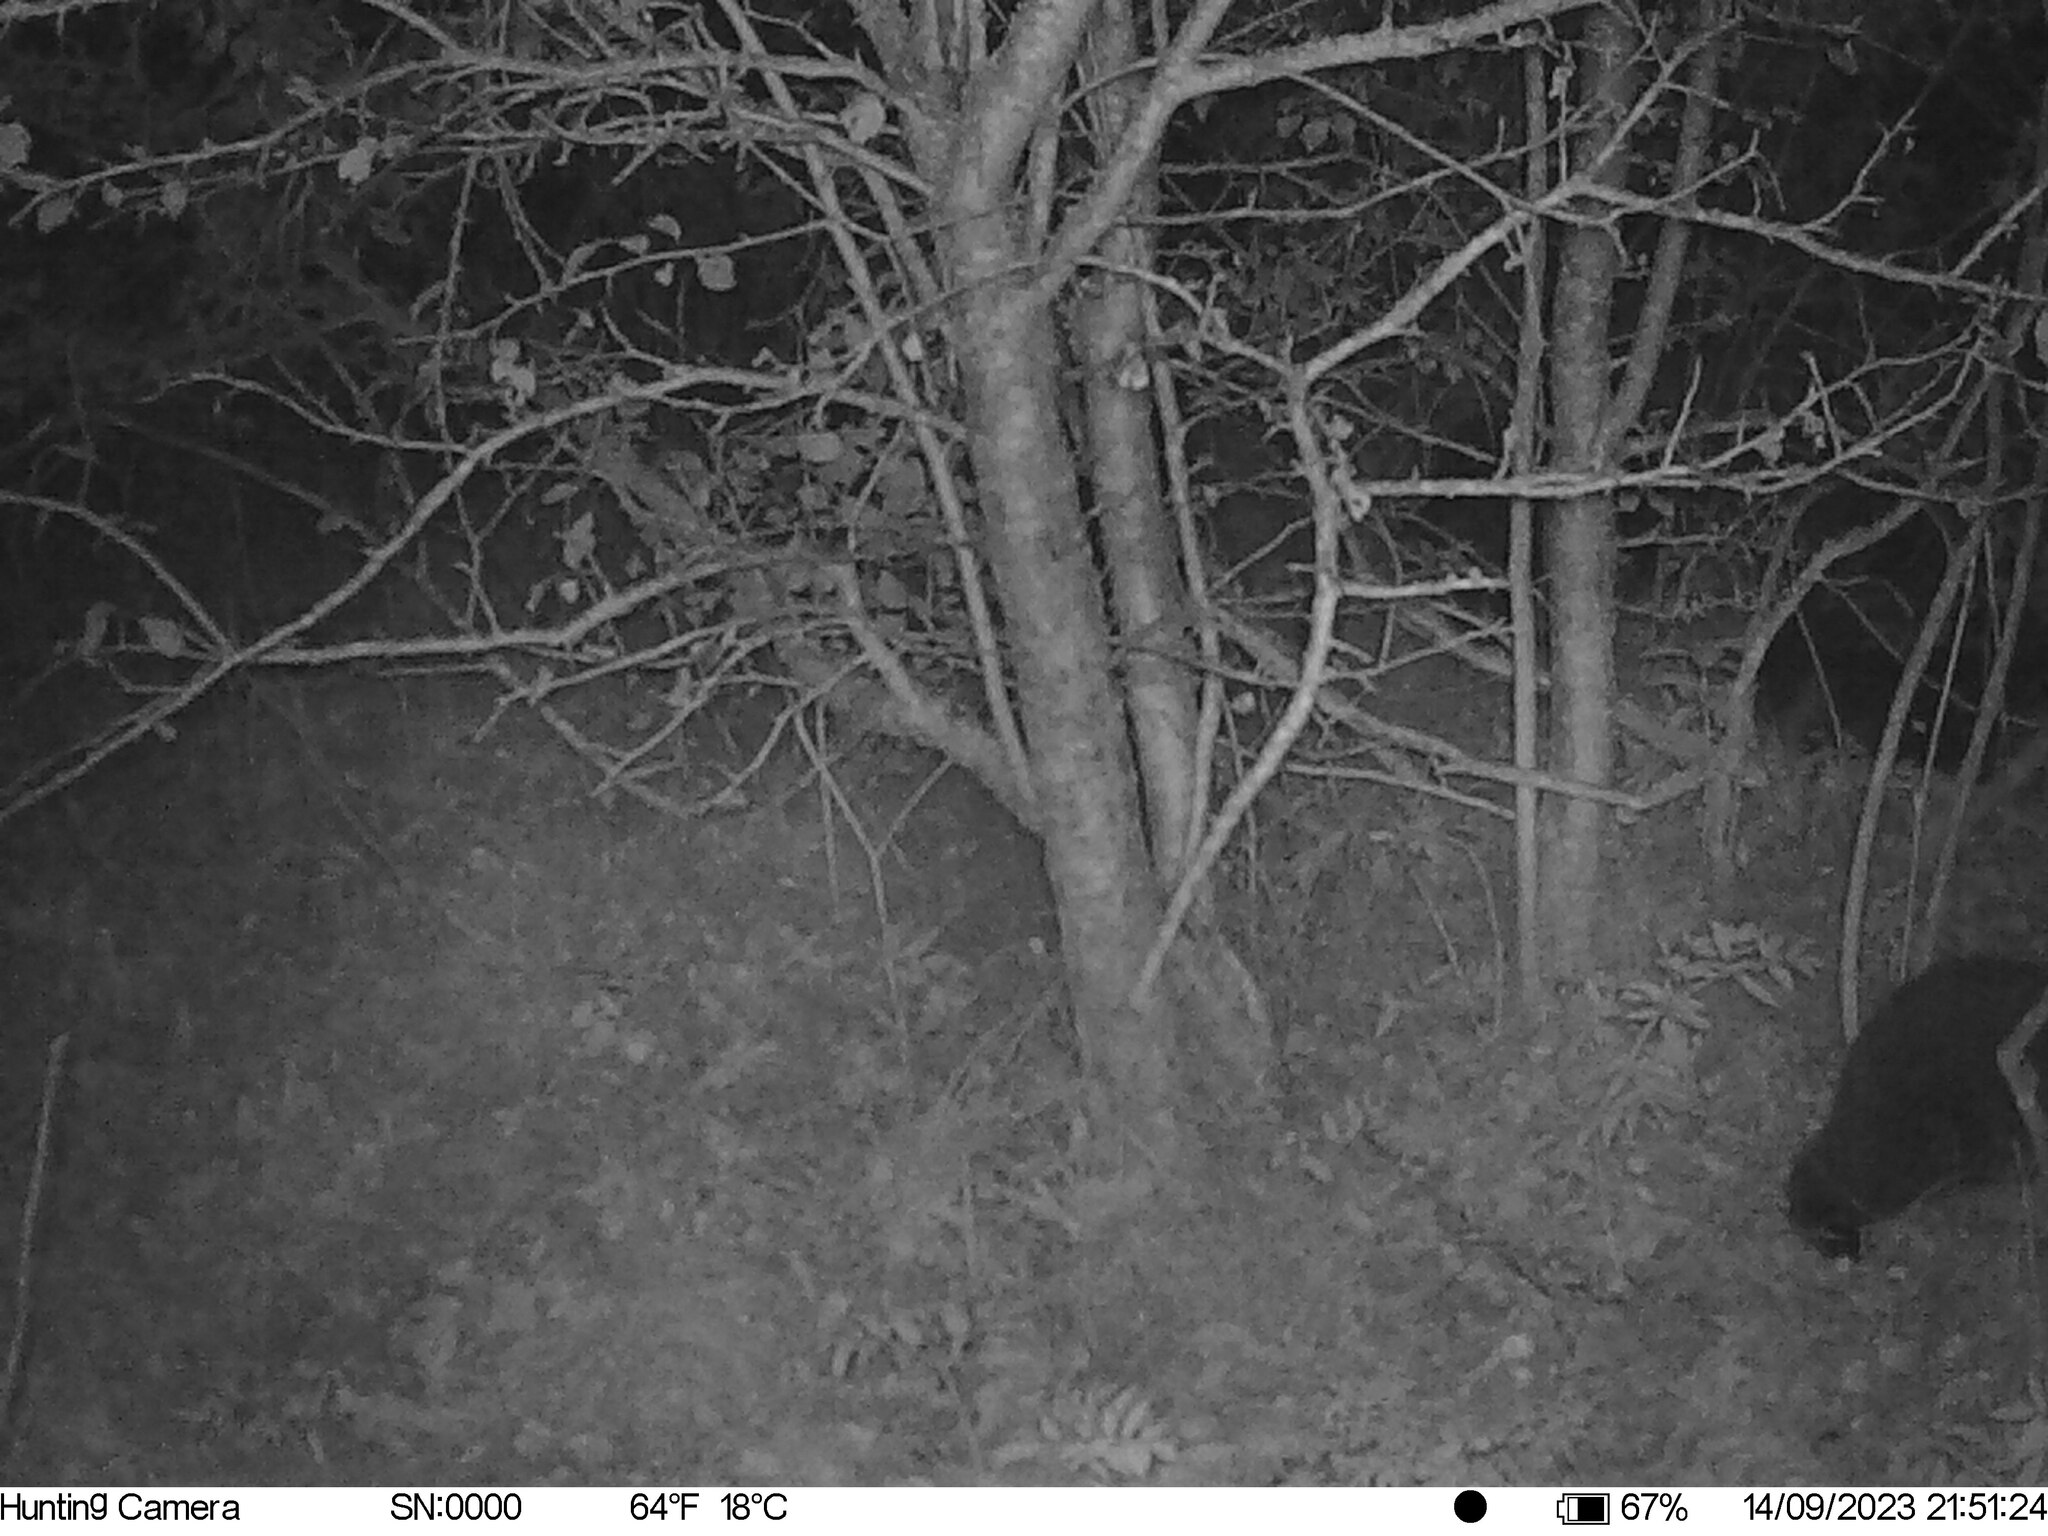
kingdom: Animalia
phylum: Chordata
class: Mammalia
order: Carnivora
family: Ursidae
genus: Ursus
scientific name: Ursus arctos
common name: Brown bear
